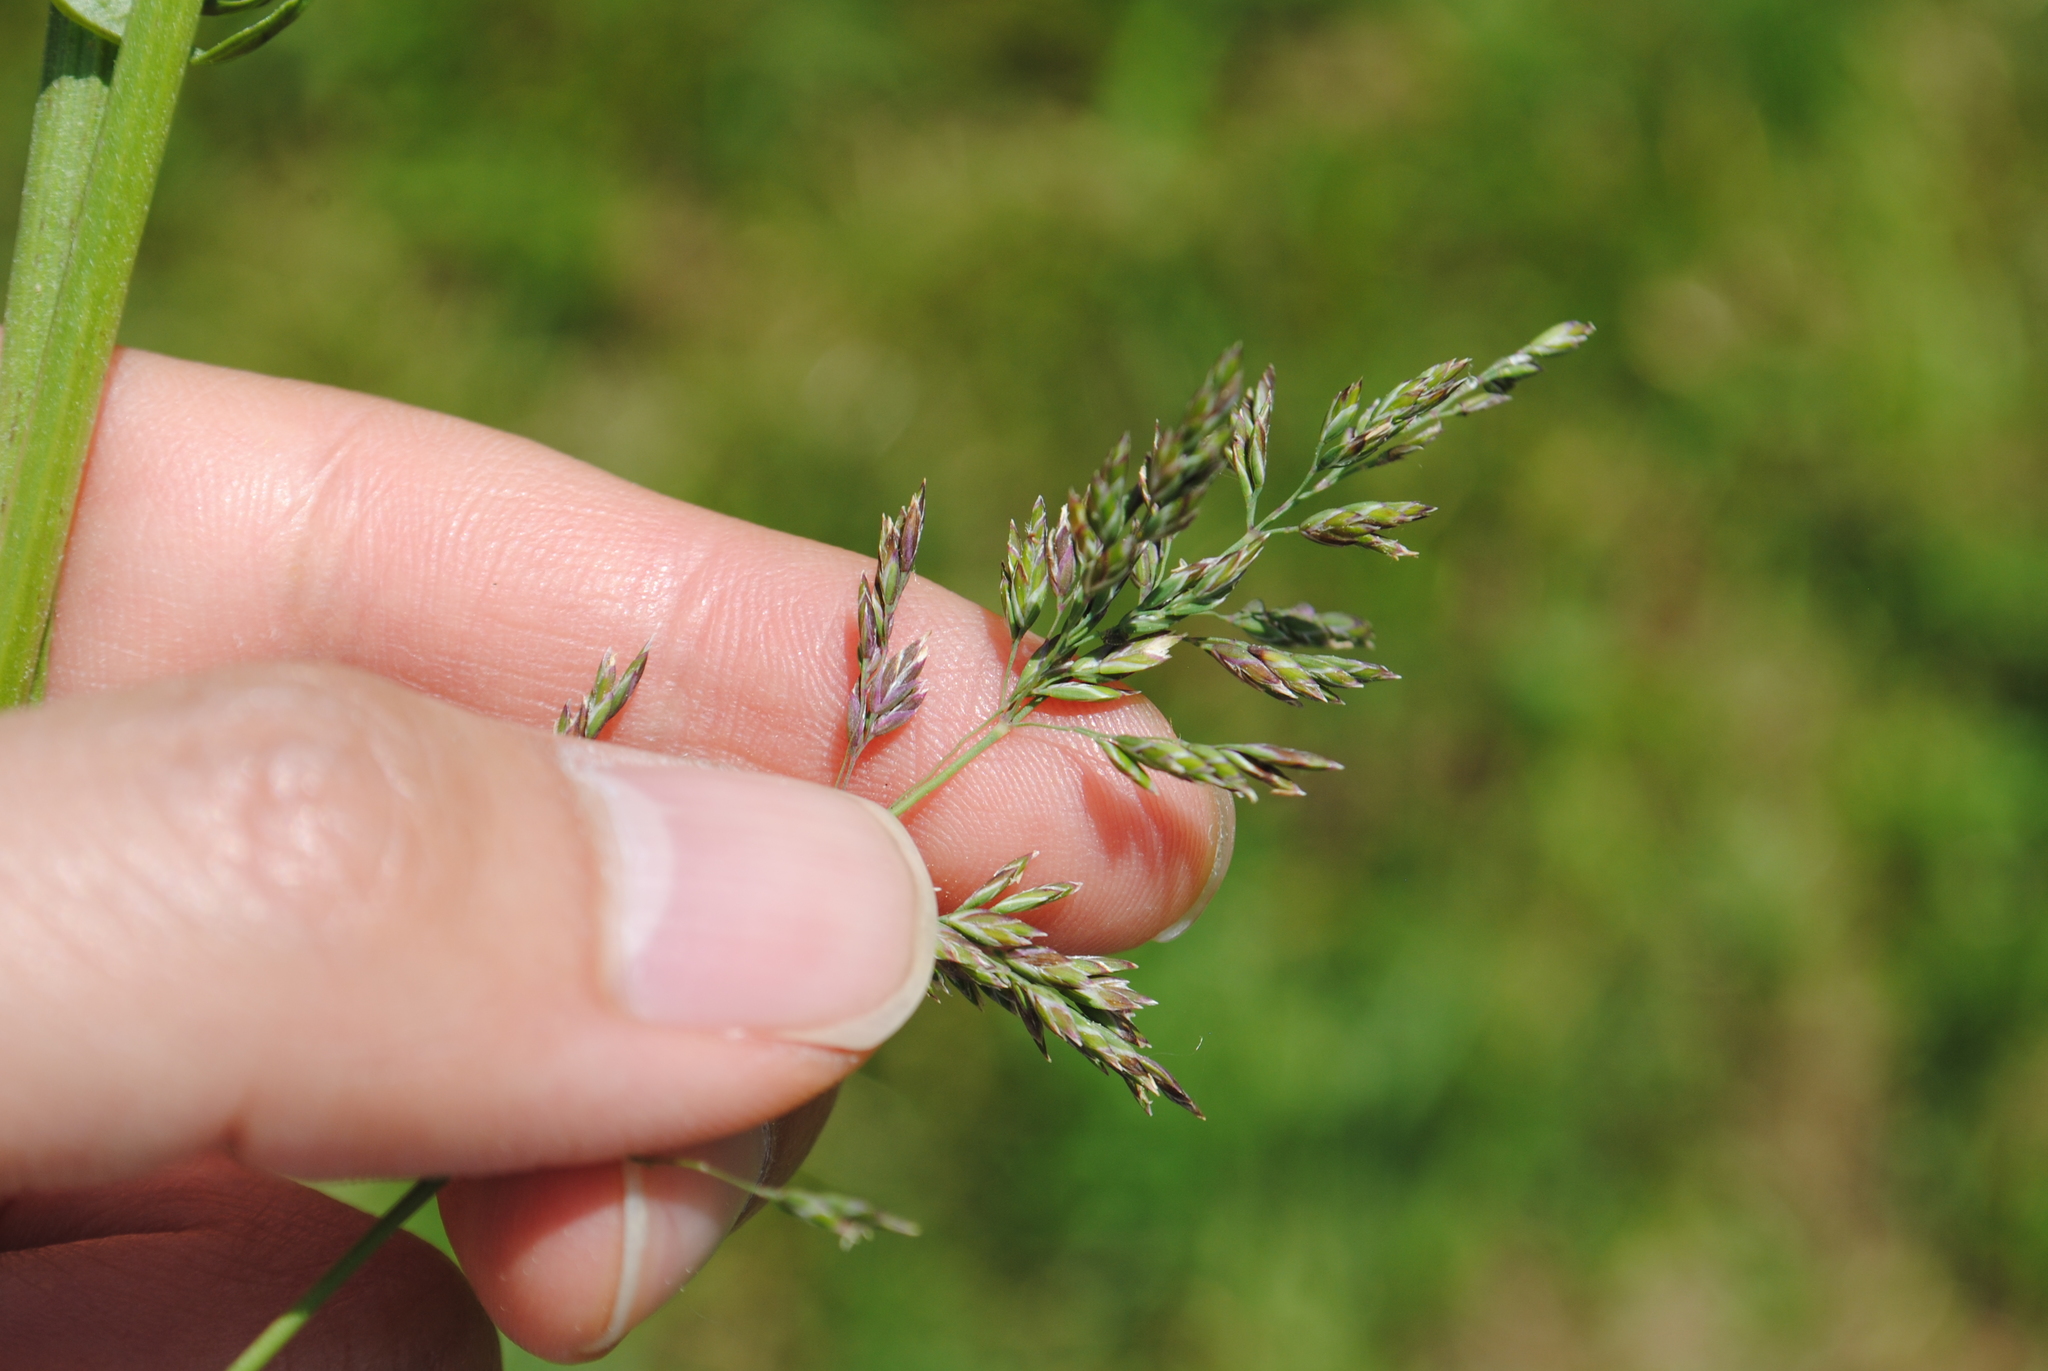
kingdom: Plantae
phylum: Tracheophyta
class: Liliopsida
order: Poales
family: Poaceae
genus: Poa
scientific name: Poa pratensis
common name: Kentucky bluegrass
